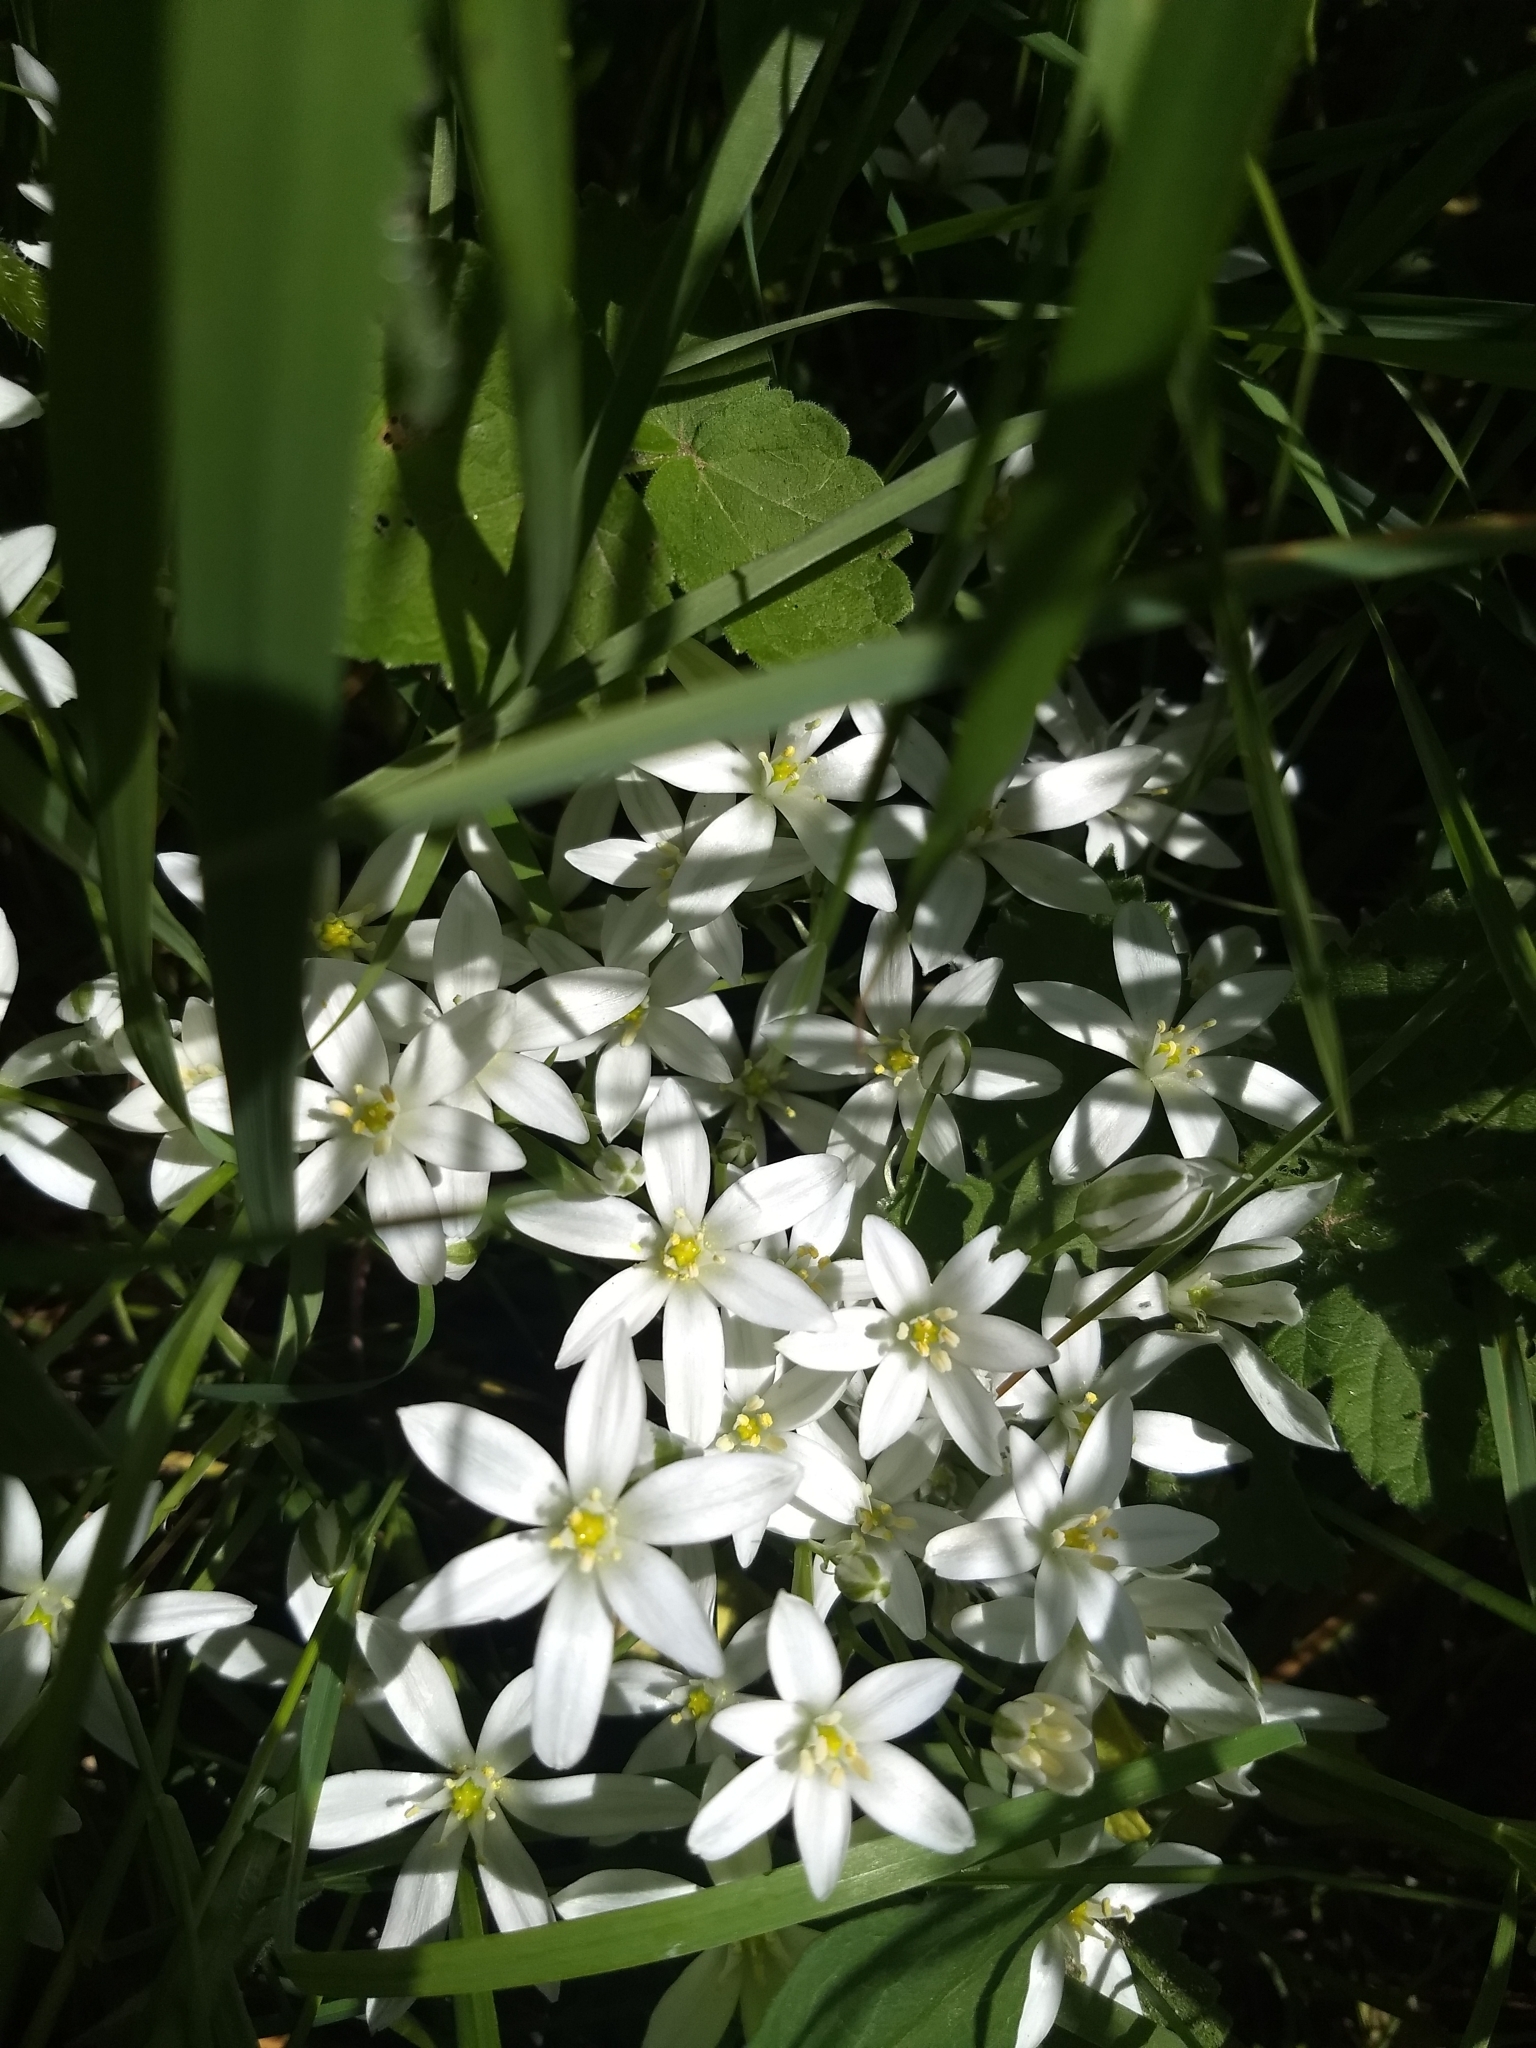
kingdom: Plantae
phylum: Tracheophyta
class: Liliopsida
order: Asparagales
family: Asparagaceae
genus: Ornithogalum
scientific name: Ornithogalum umbellatum
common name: Garden star-of-bethlehem
